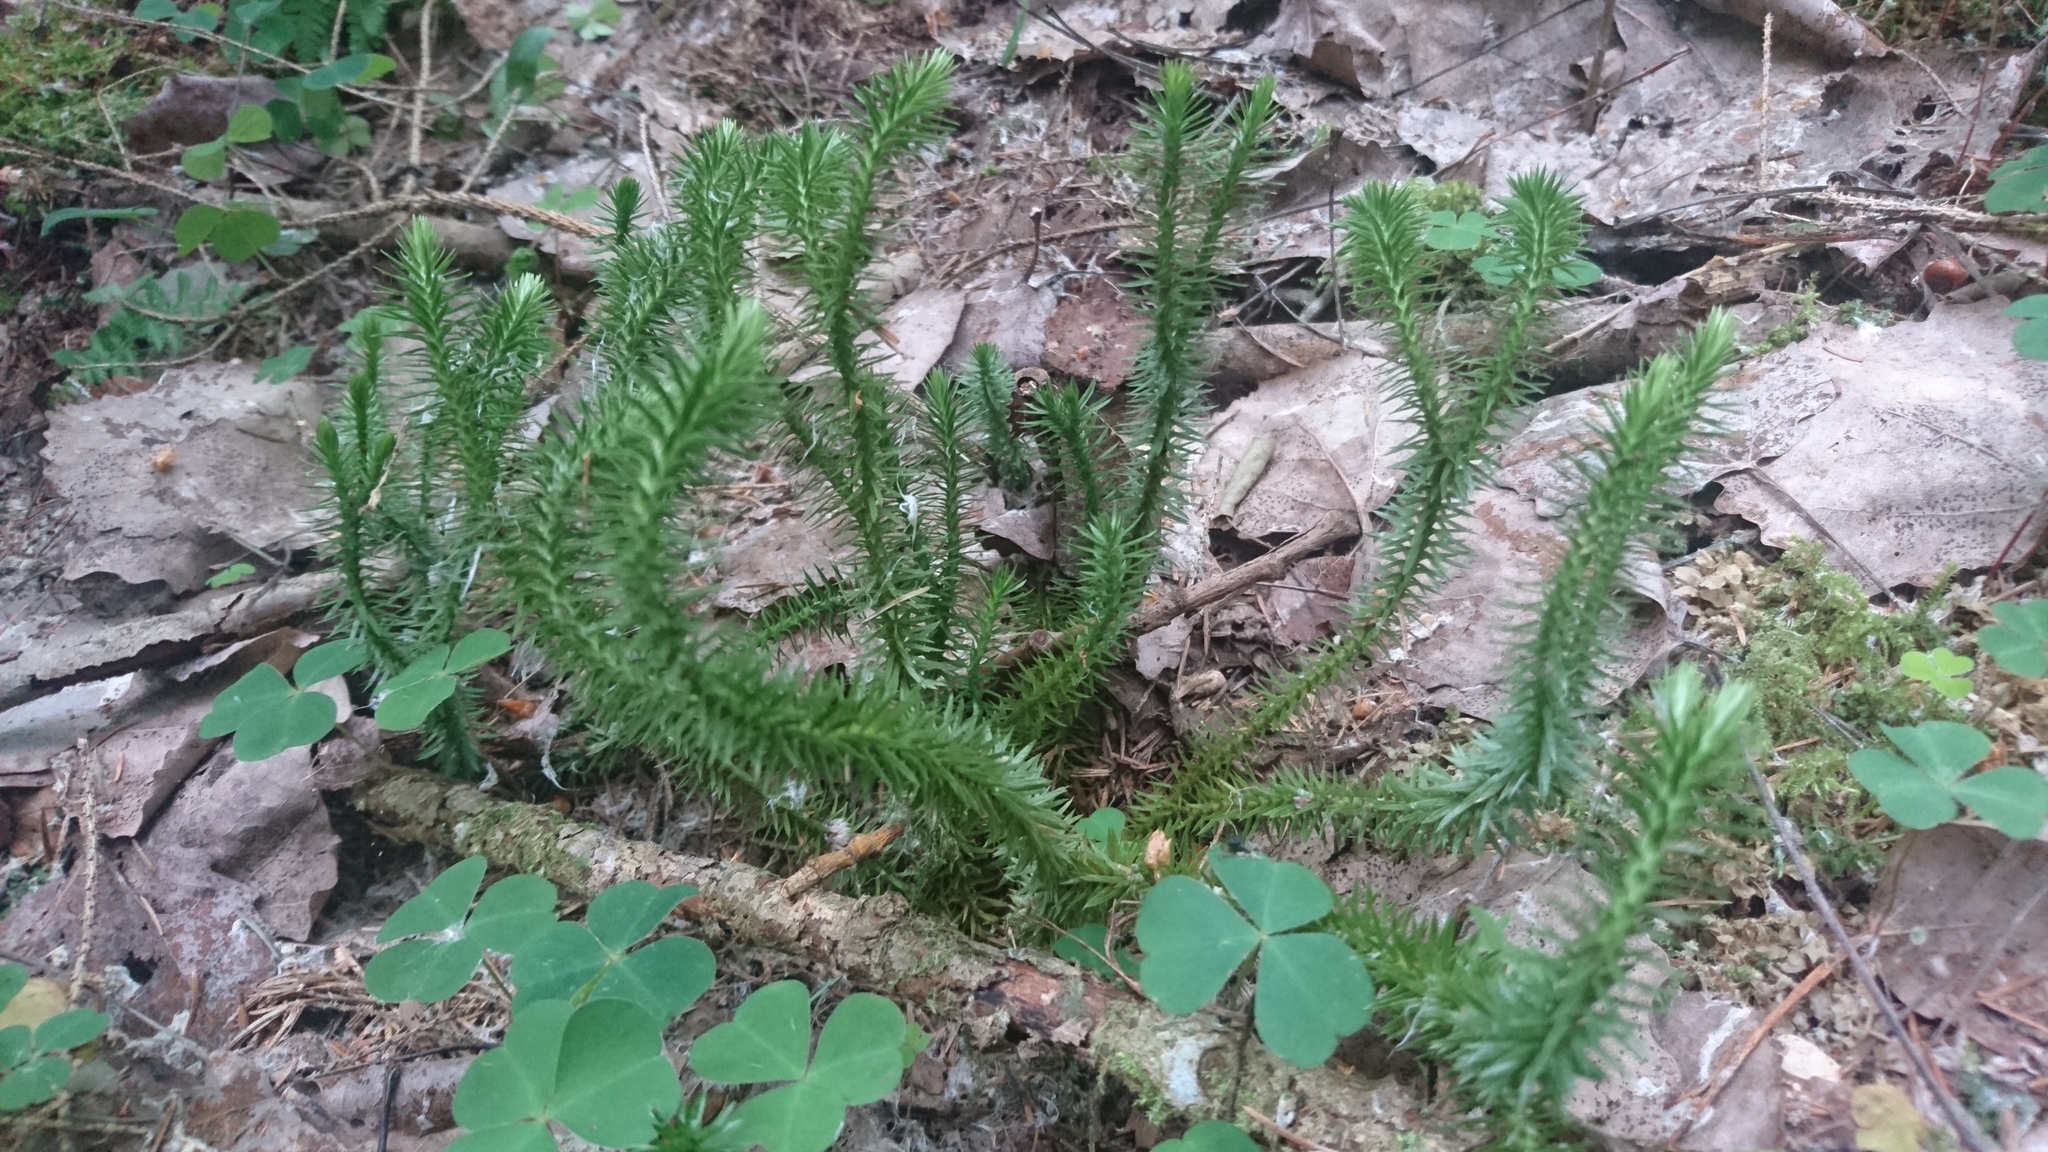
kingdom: Plantae
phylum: Tracheophyta
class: Lycopodiopsida
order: Lycopodiales
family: Lycopodiaceae
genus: Huperzia
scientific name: Huperzia selago
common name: Northern firmoss
